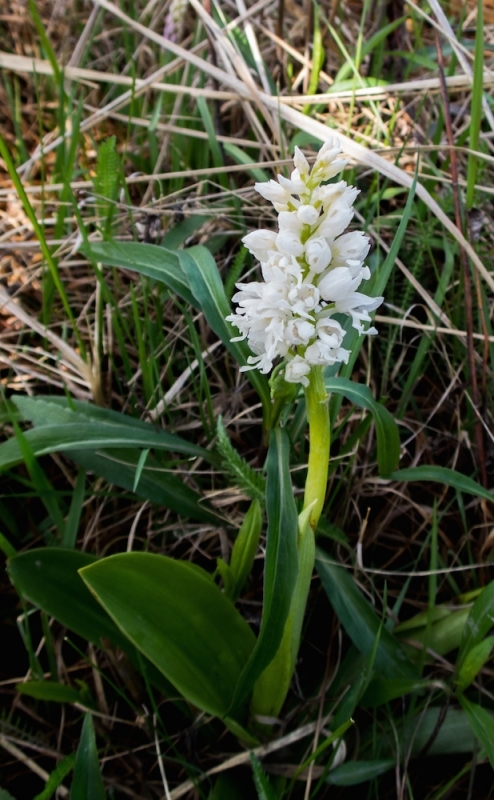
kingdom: Plantae
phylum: Tracheophyta
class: Liliopsida
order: Asparagales
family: Orchidaceae
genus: Orchis
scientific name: Orchis militaris
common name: Military orchid
